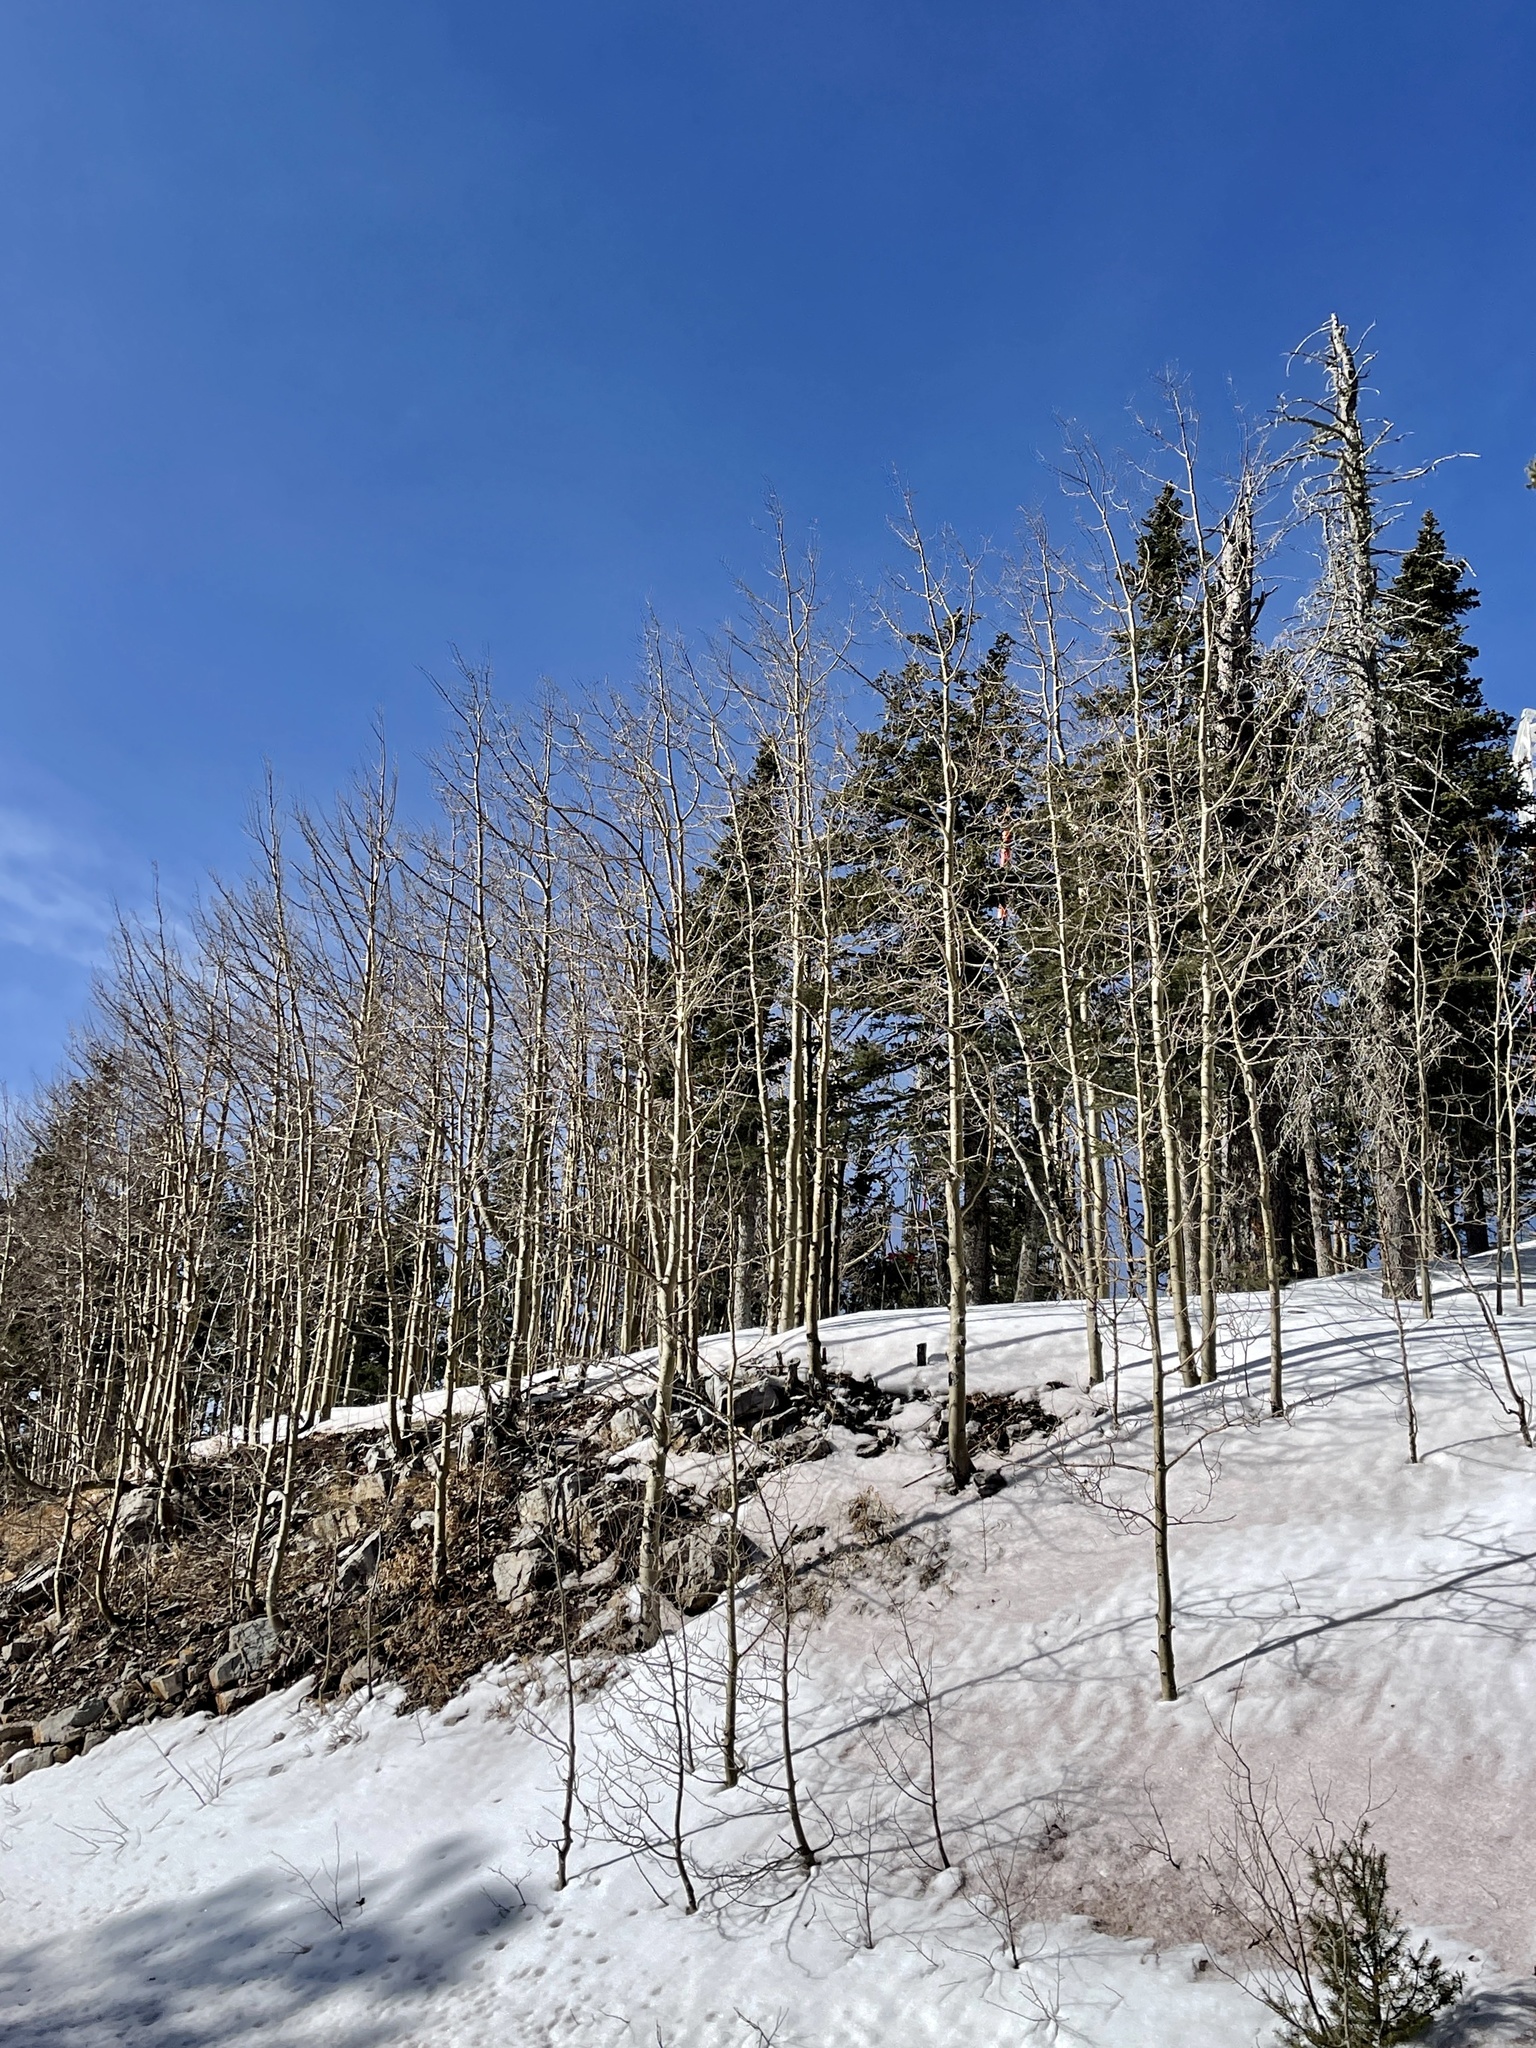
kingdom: Plantae
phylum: Tracheophyta
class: Magnoliopsida
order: Malpighiales
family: Salicaceae
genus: Populus
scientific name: Populus tremuloides
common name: Quaking aspen
